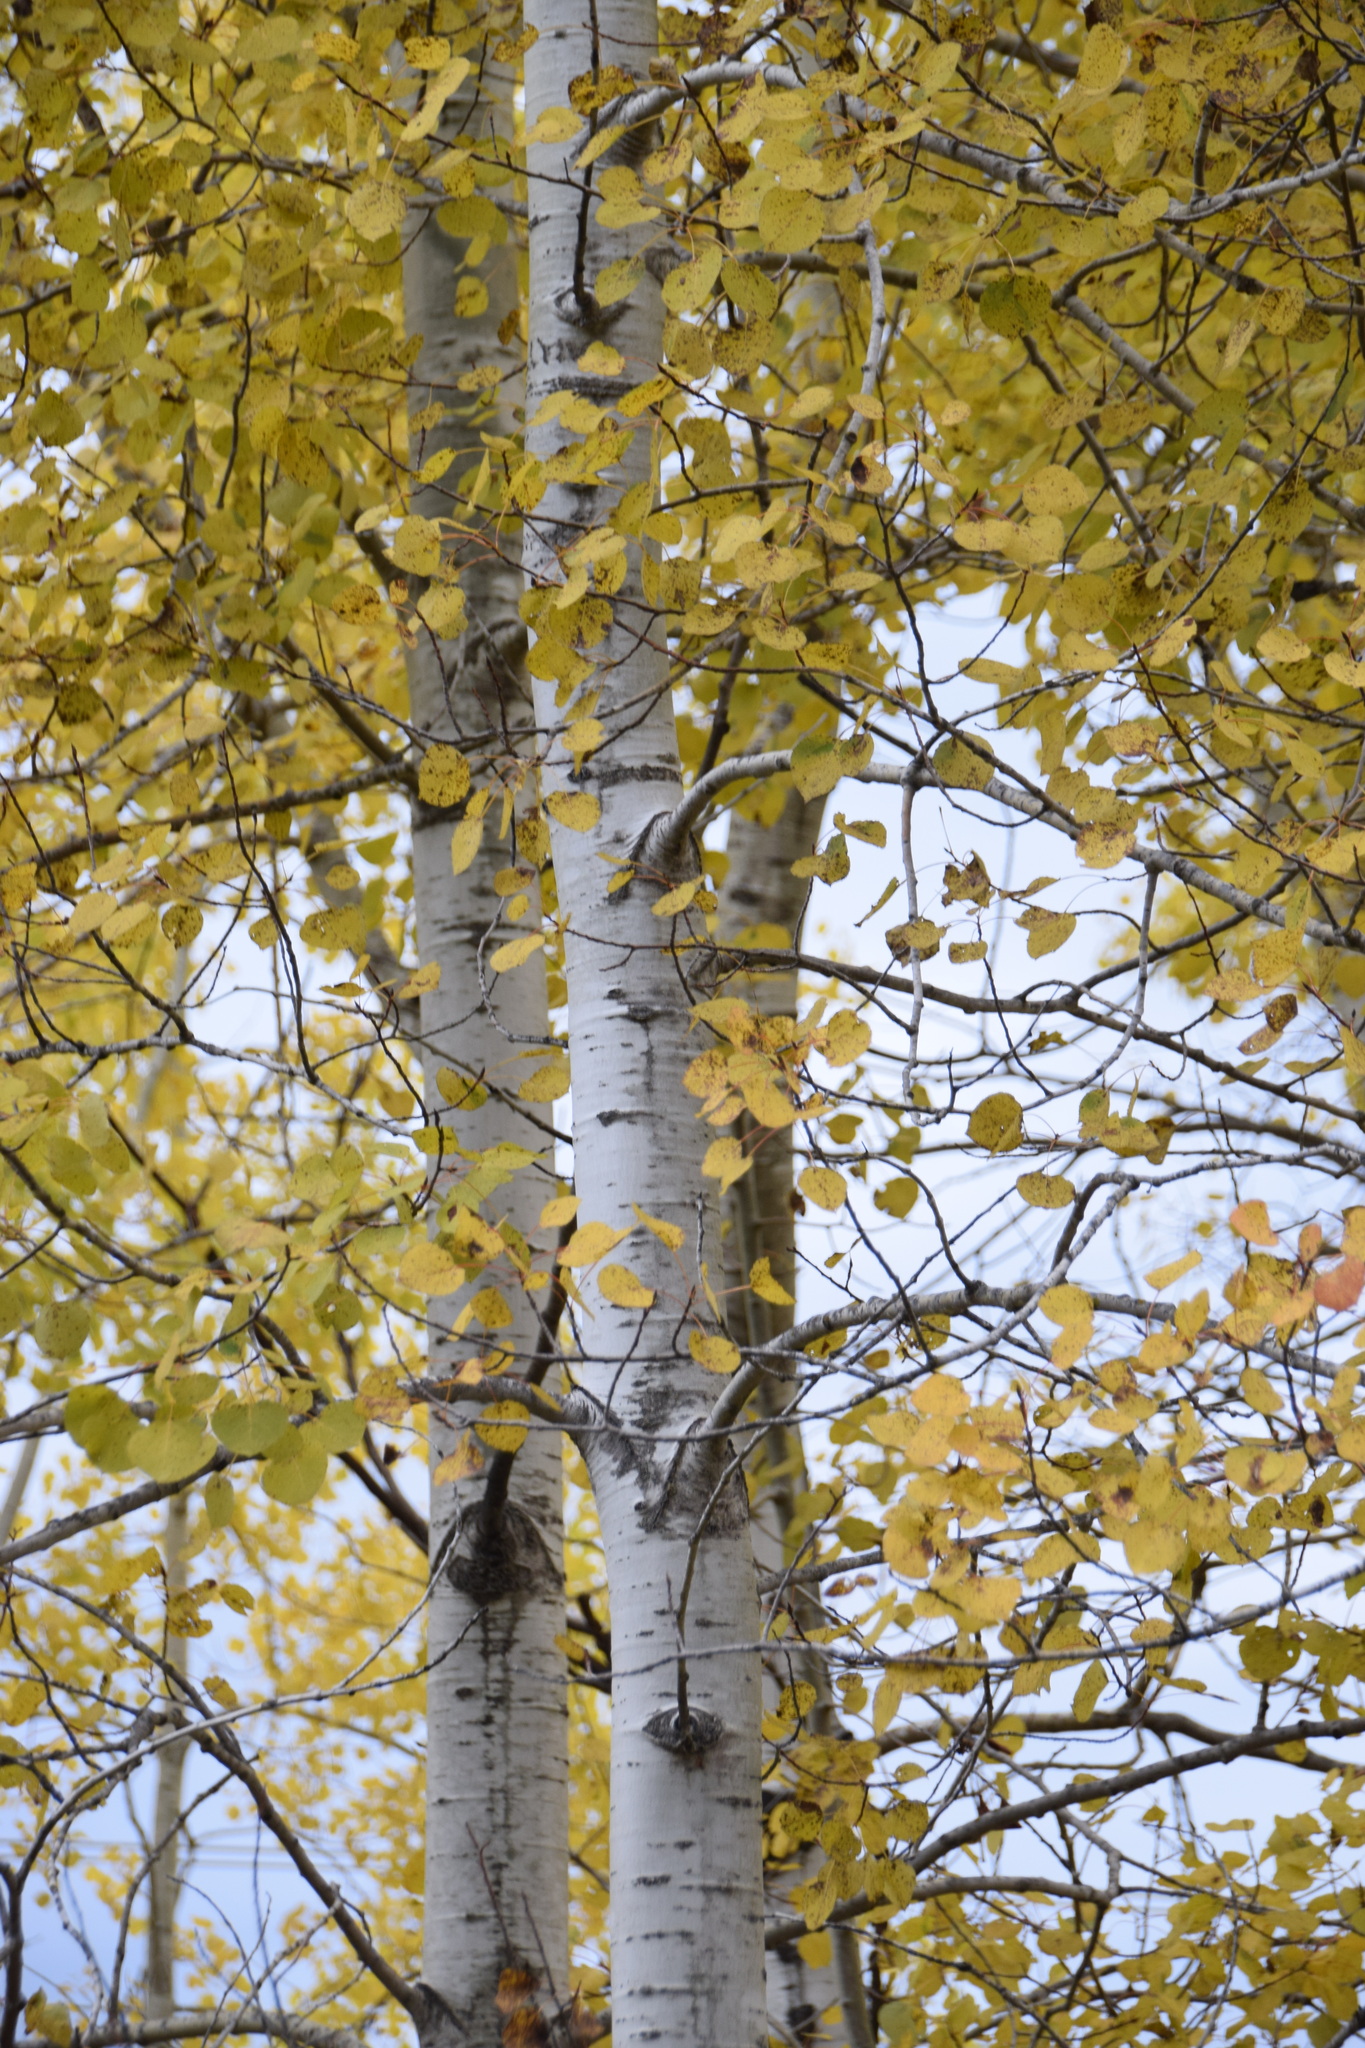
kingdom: Plantae
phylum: Tracheophyta
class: Magnoliopsida
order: Malpighiales
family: Salicaceae
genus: Populus
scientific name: Populus tremuloides
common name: Quaking aspen
